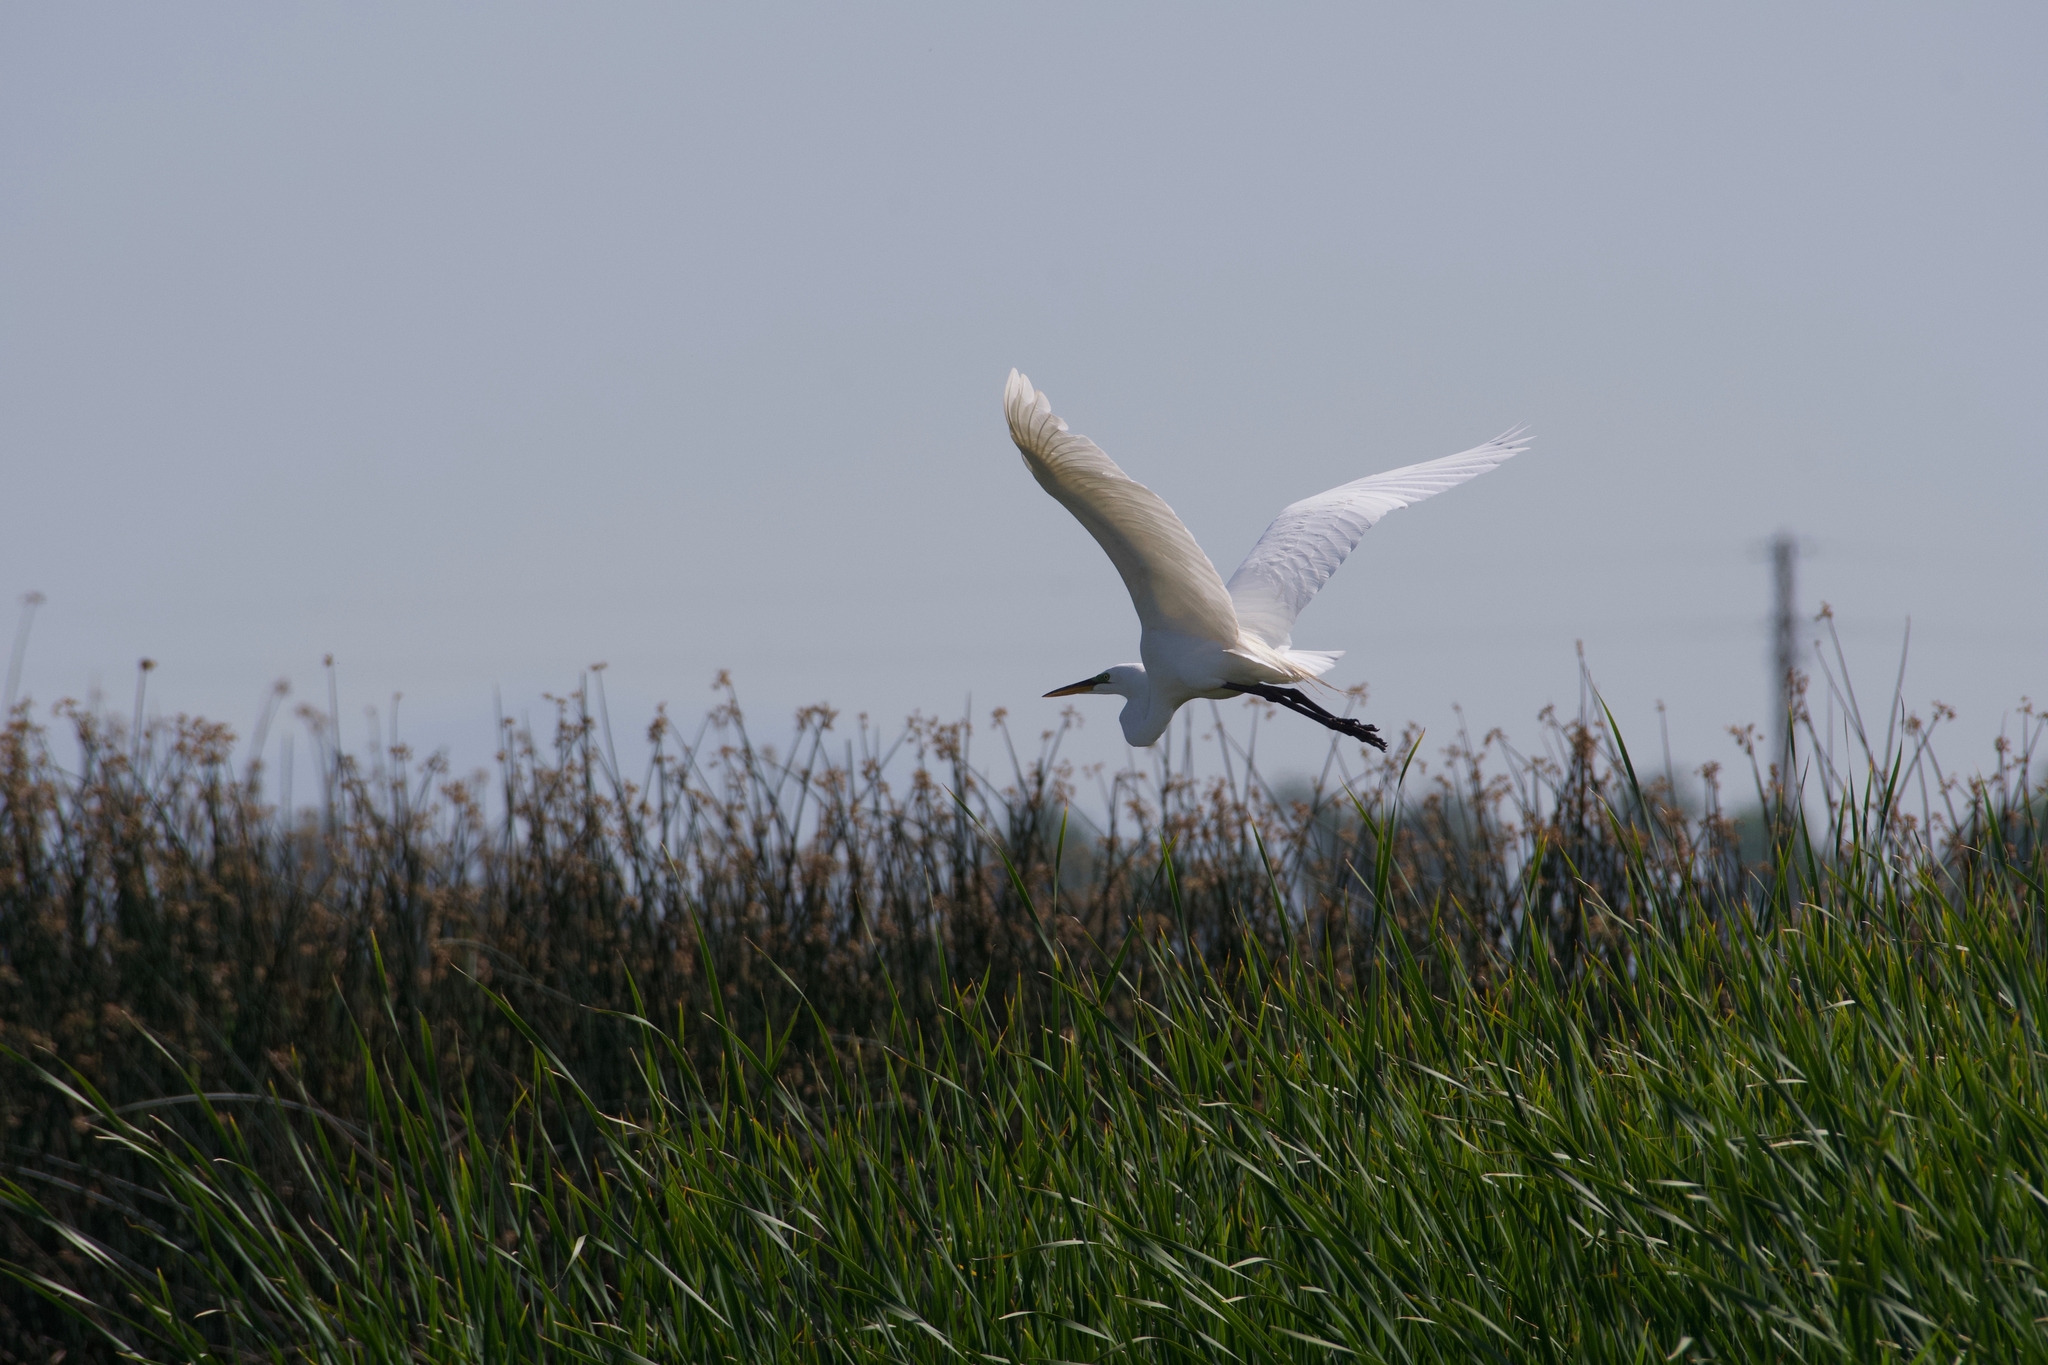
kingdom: Animalia
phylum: Chordata
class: Aves
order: Pelecaniformes
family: Ardeidae
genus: Ardea
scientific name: Ardea alba
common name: Great egret
